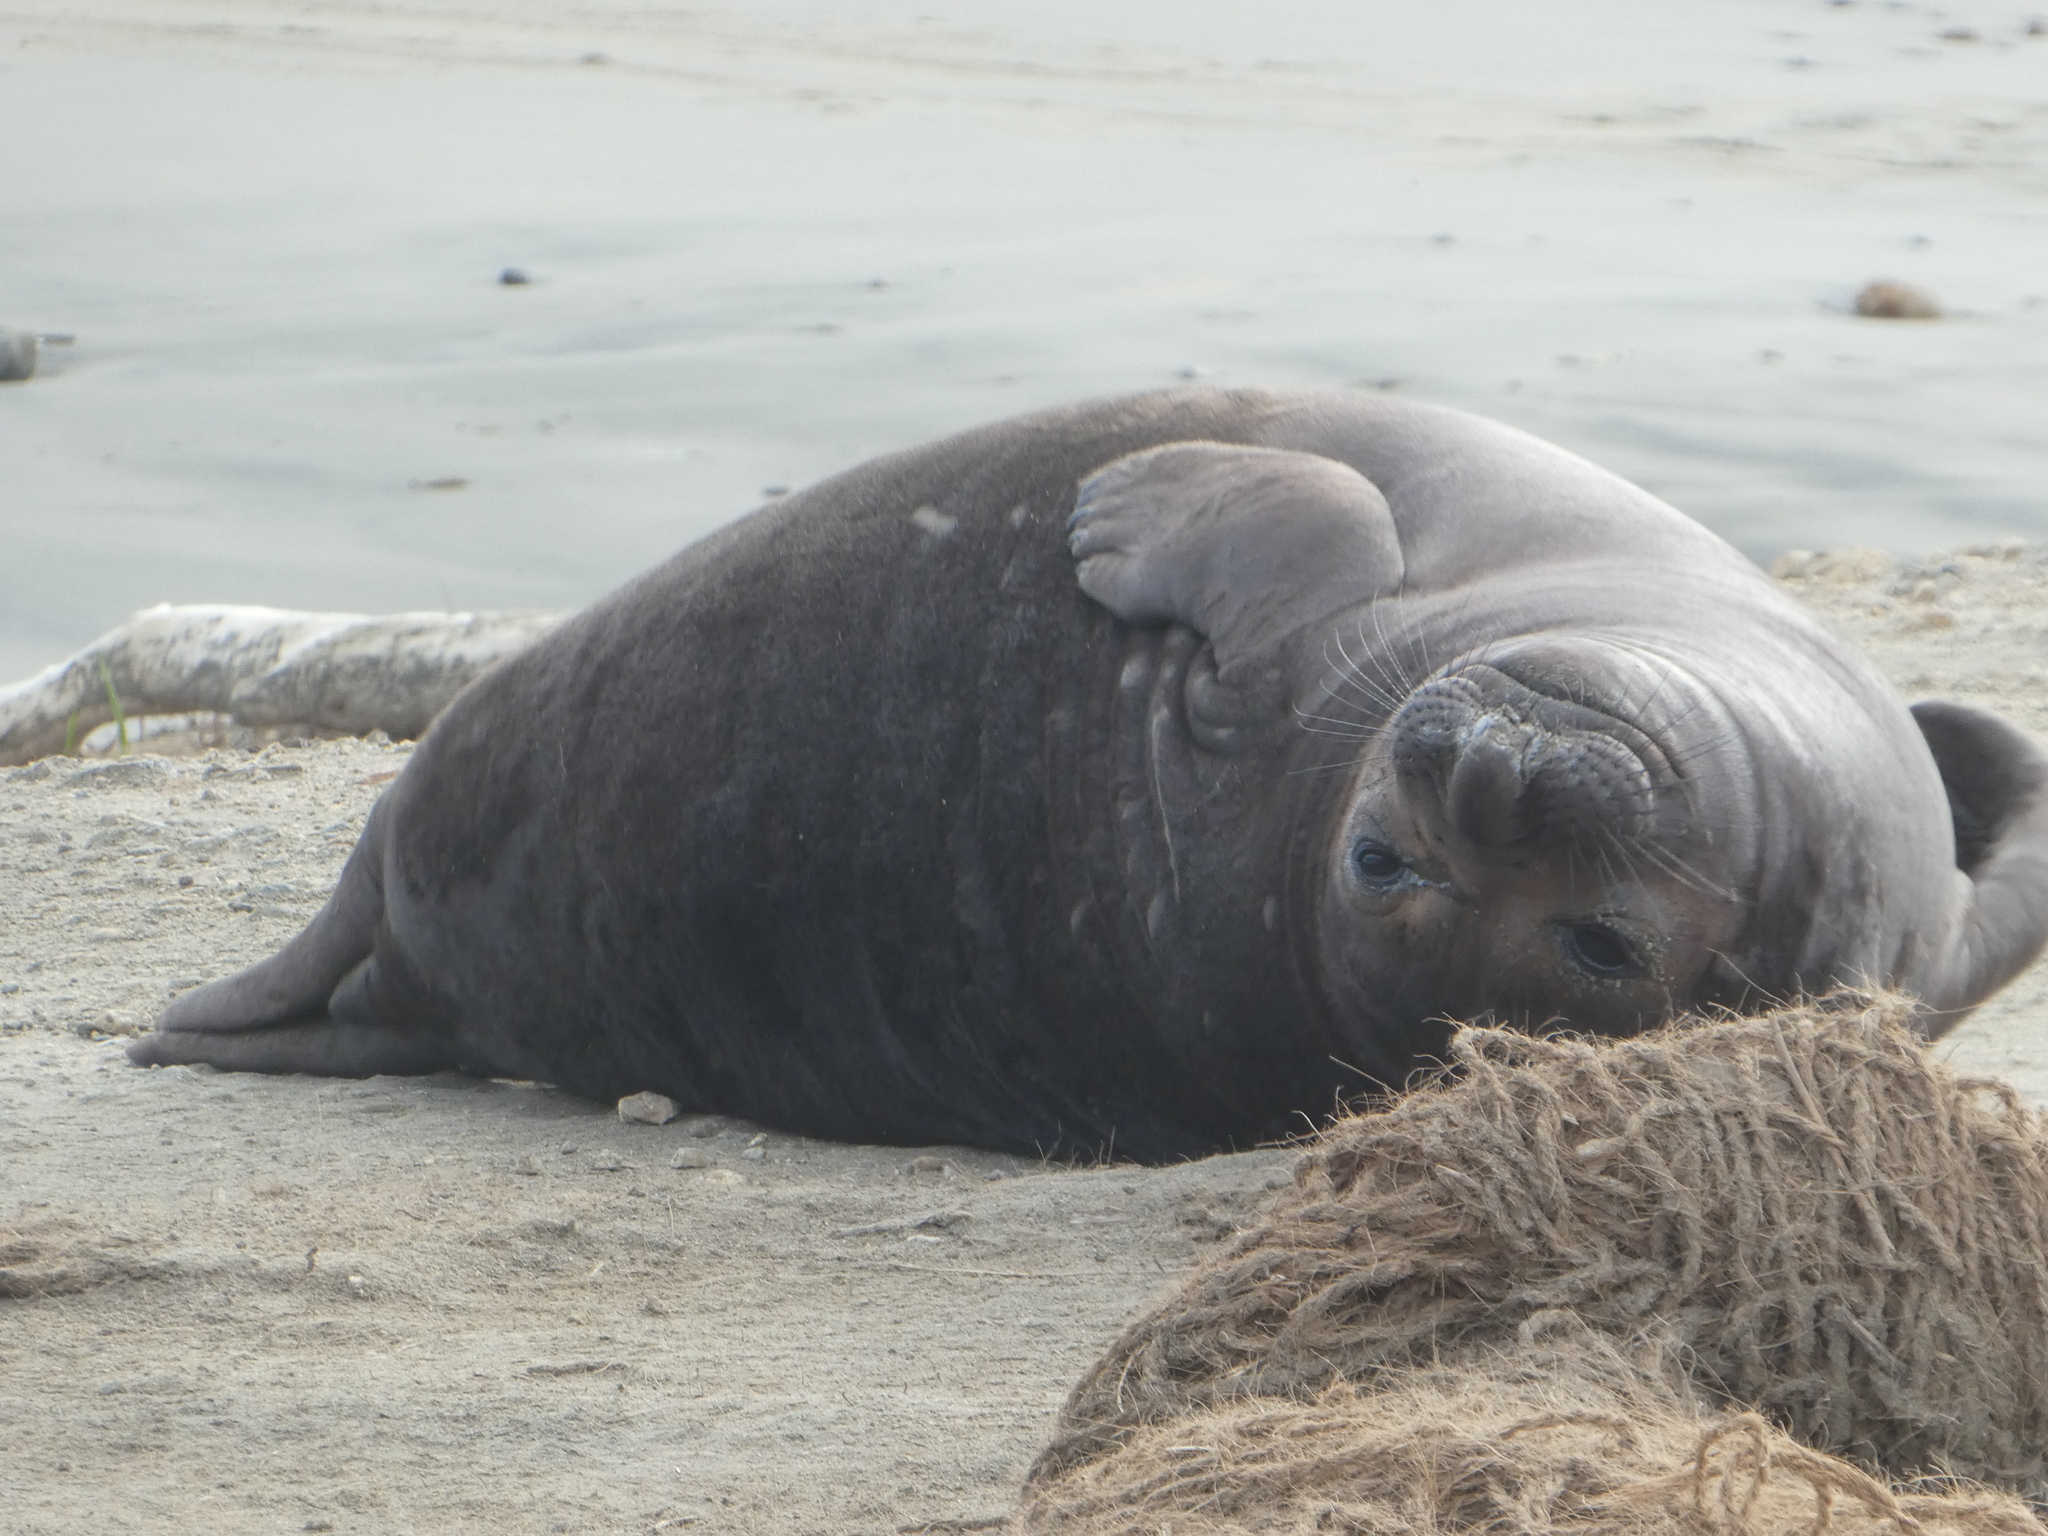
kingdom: Animalia
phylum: Chordata
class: Mammalia
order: Carnivora
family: Phocidae
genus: Mirounga
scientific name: Mirounga angustirostris
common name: Northern elephant seal
